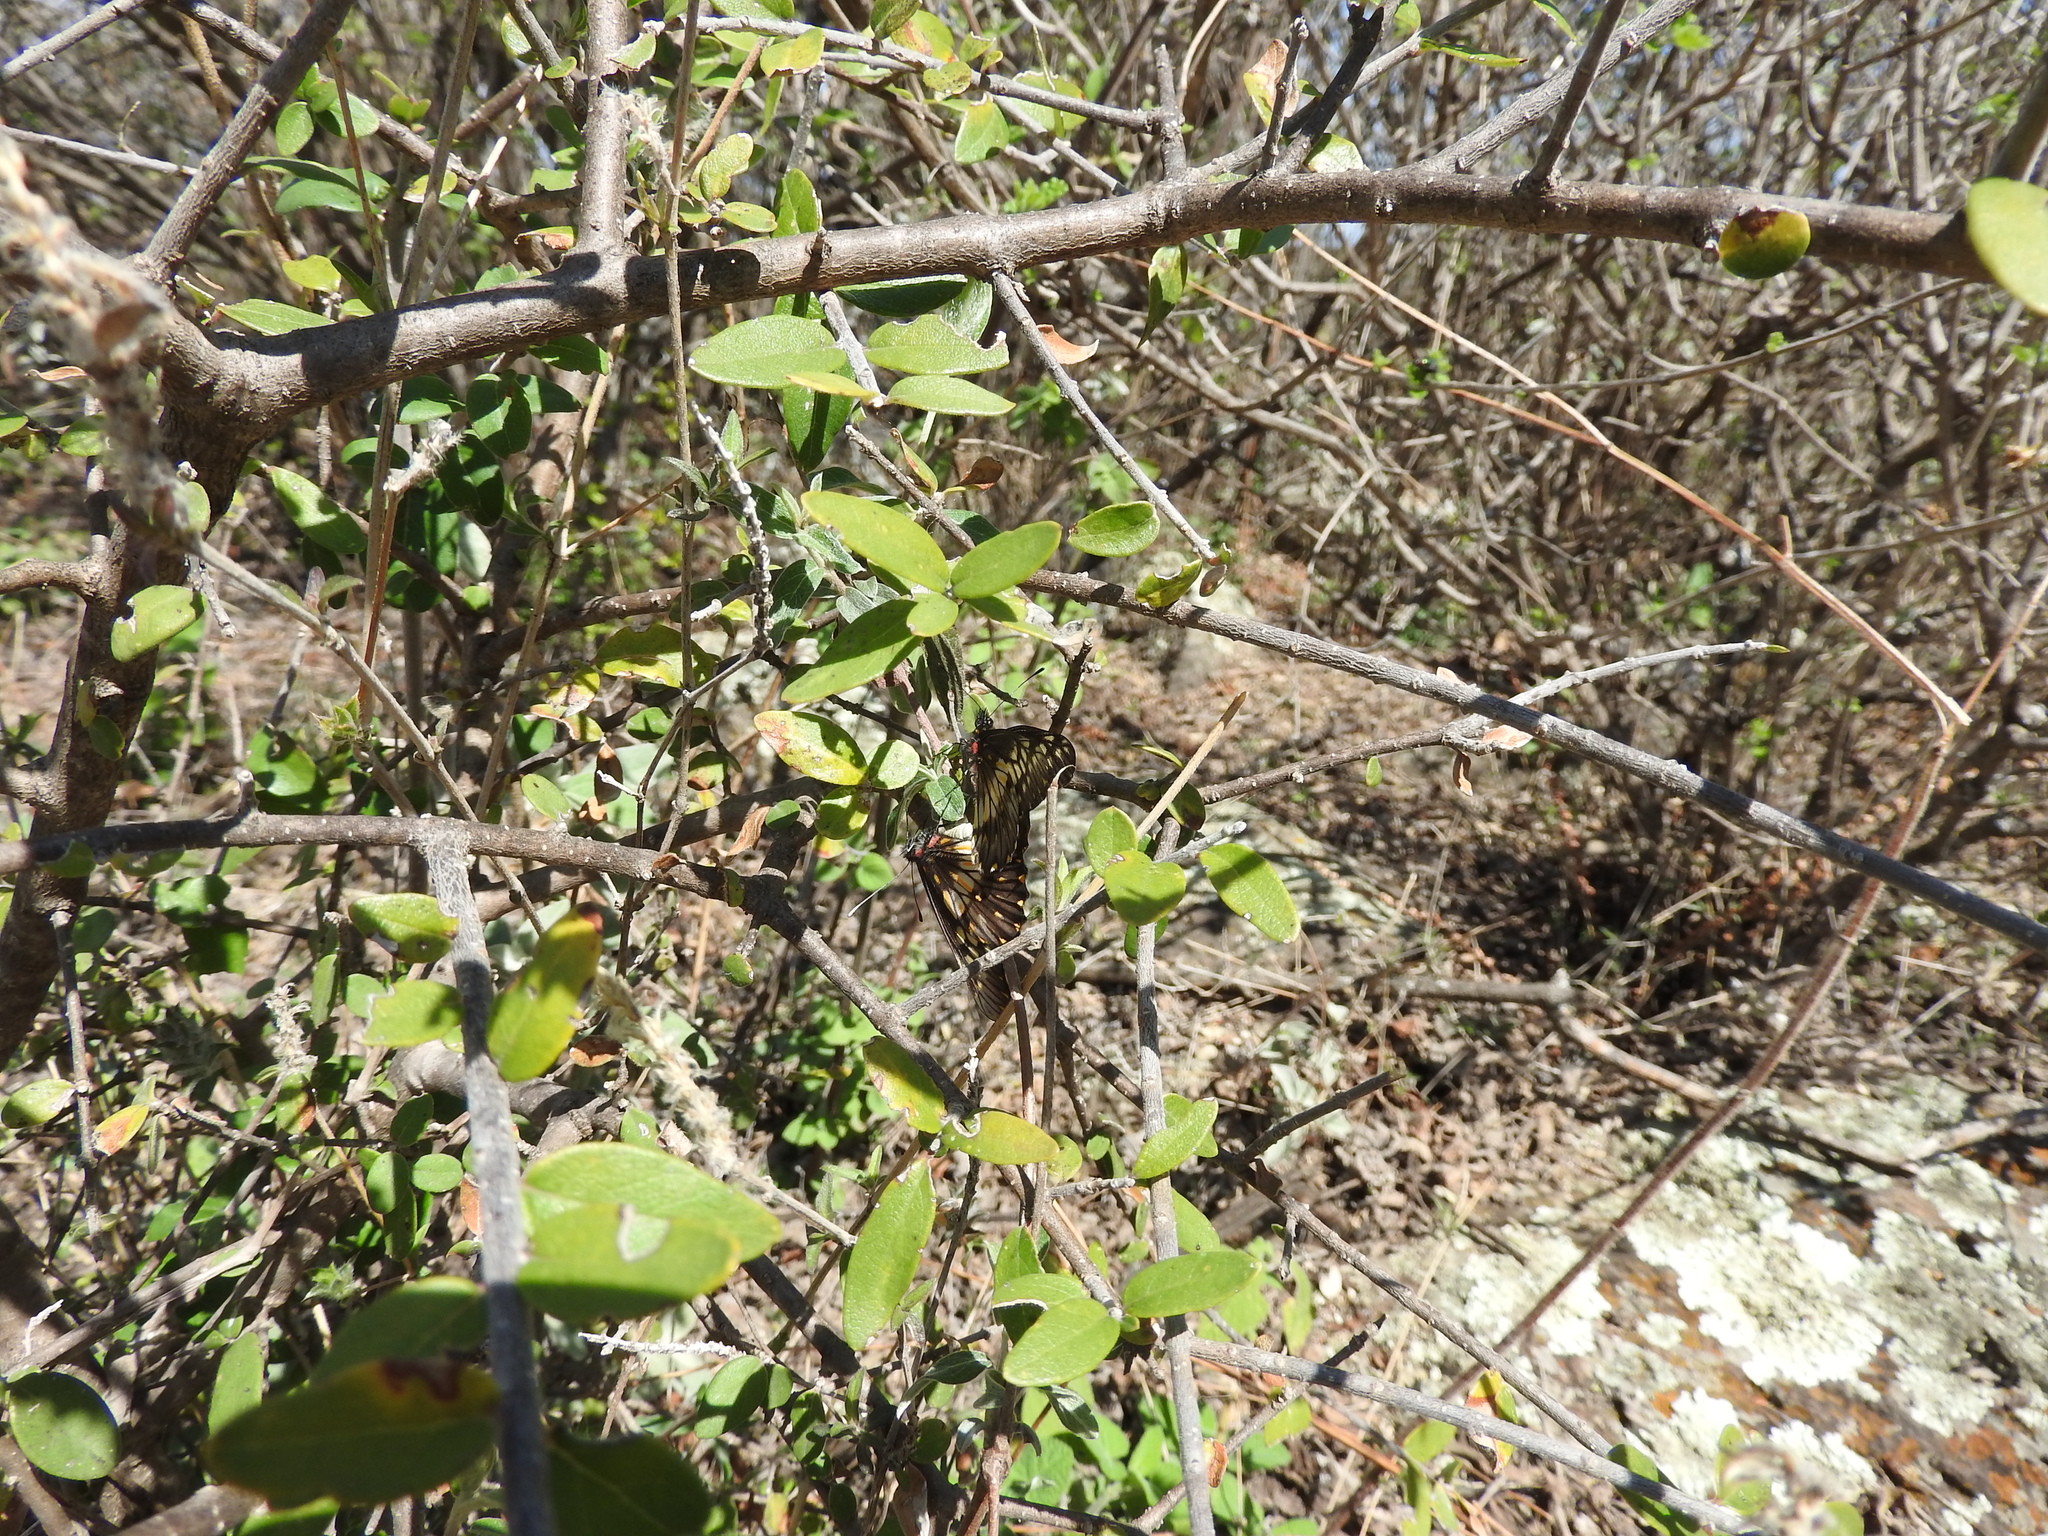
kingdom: Animalia
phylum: Arthropoda
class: Insecta
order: Lepidoptera
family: Pieridae
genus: Archonias
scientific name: Archonias nimbice
